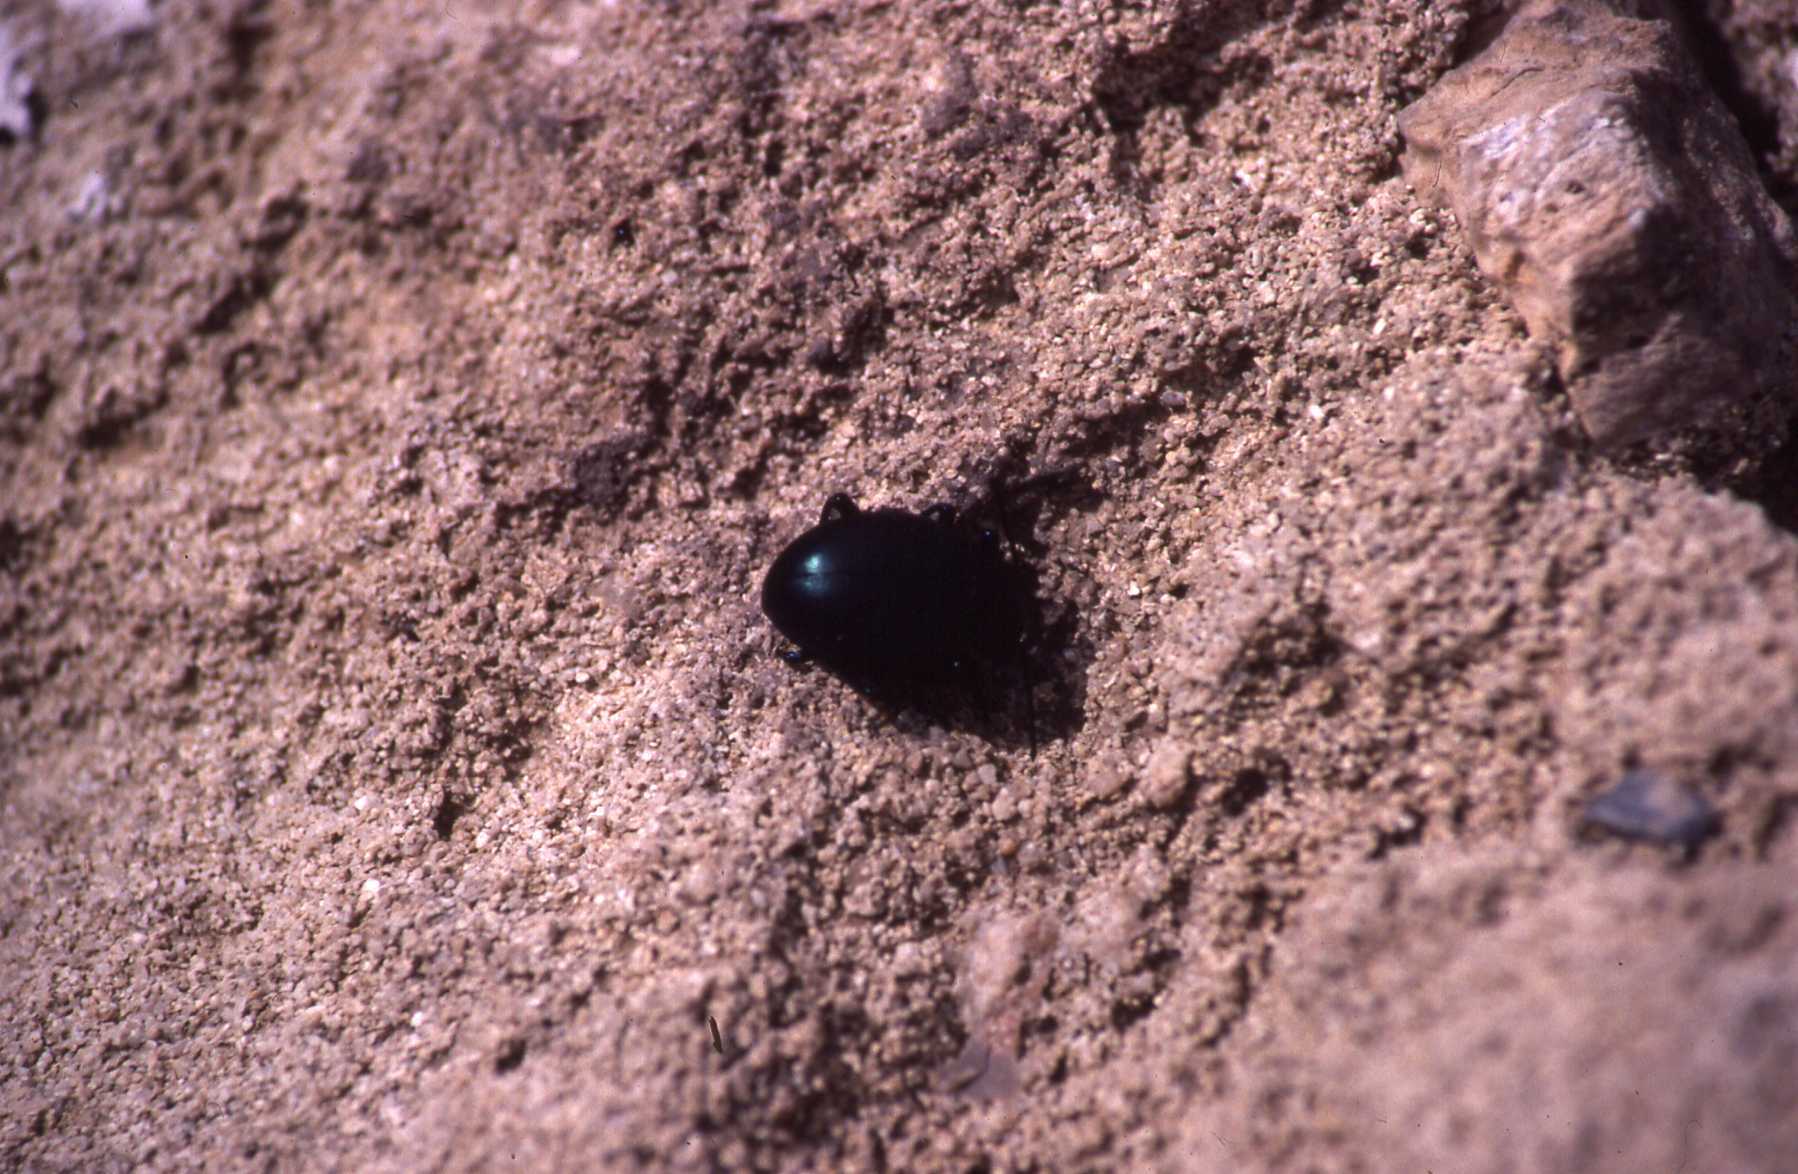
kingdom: Animalia
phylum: Arthropoda
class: Insecta
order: Coleoptera
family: Chrysomelidae
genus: Timarcha
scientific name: Timarcha balearica
